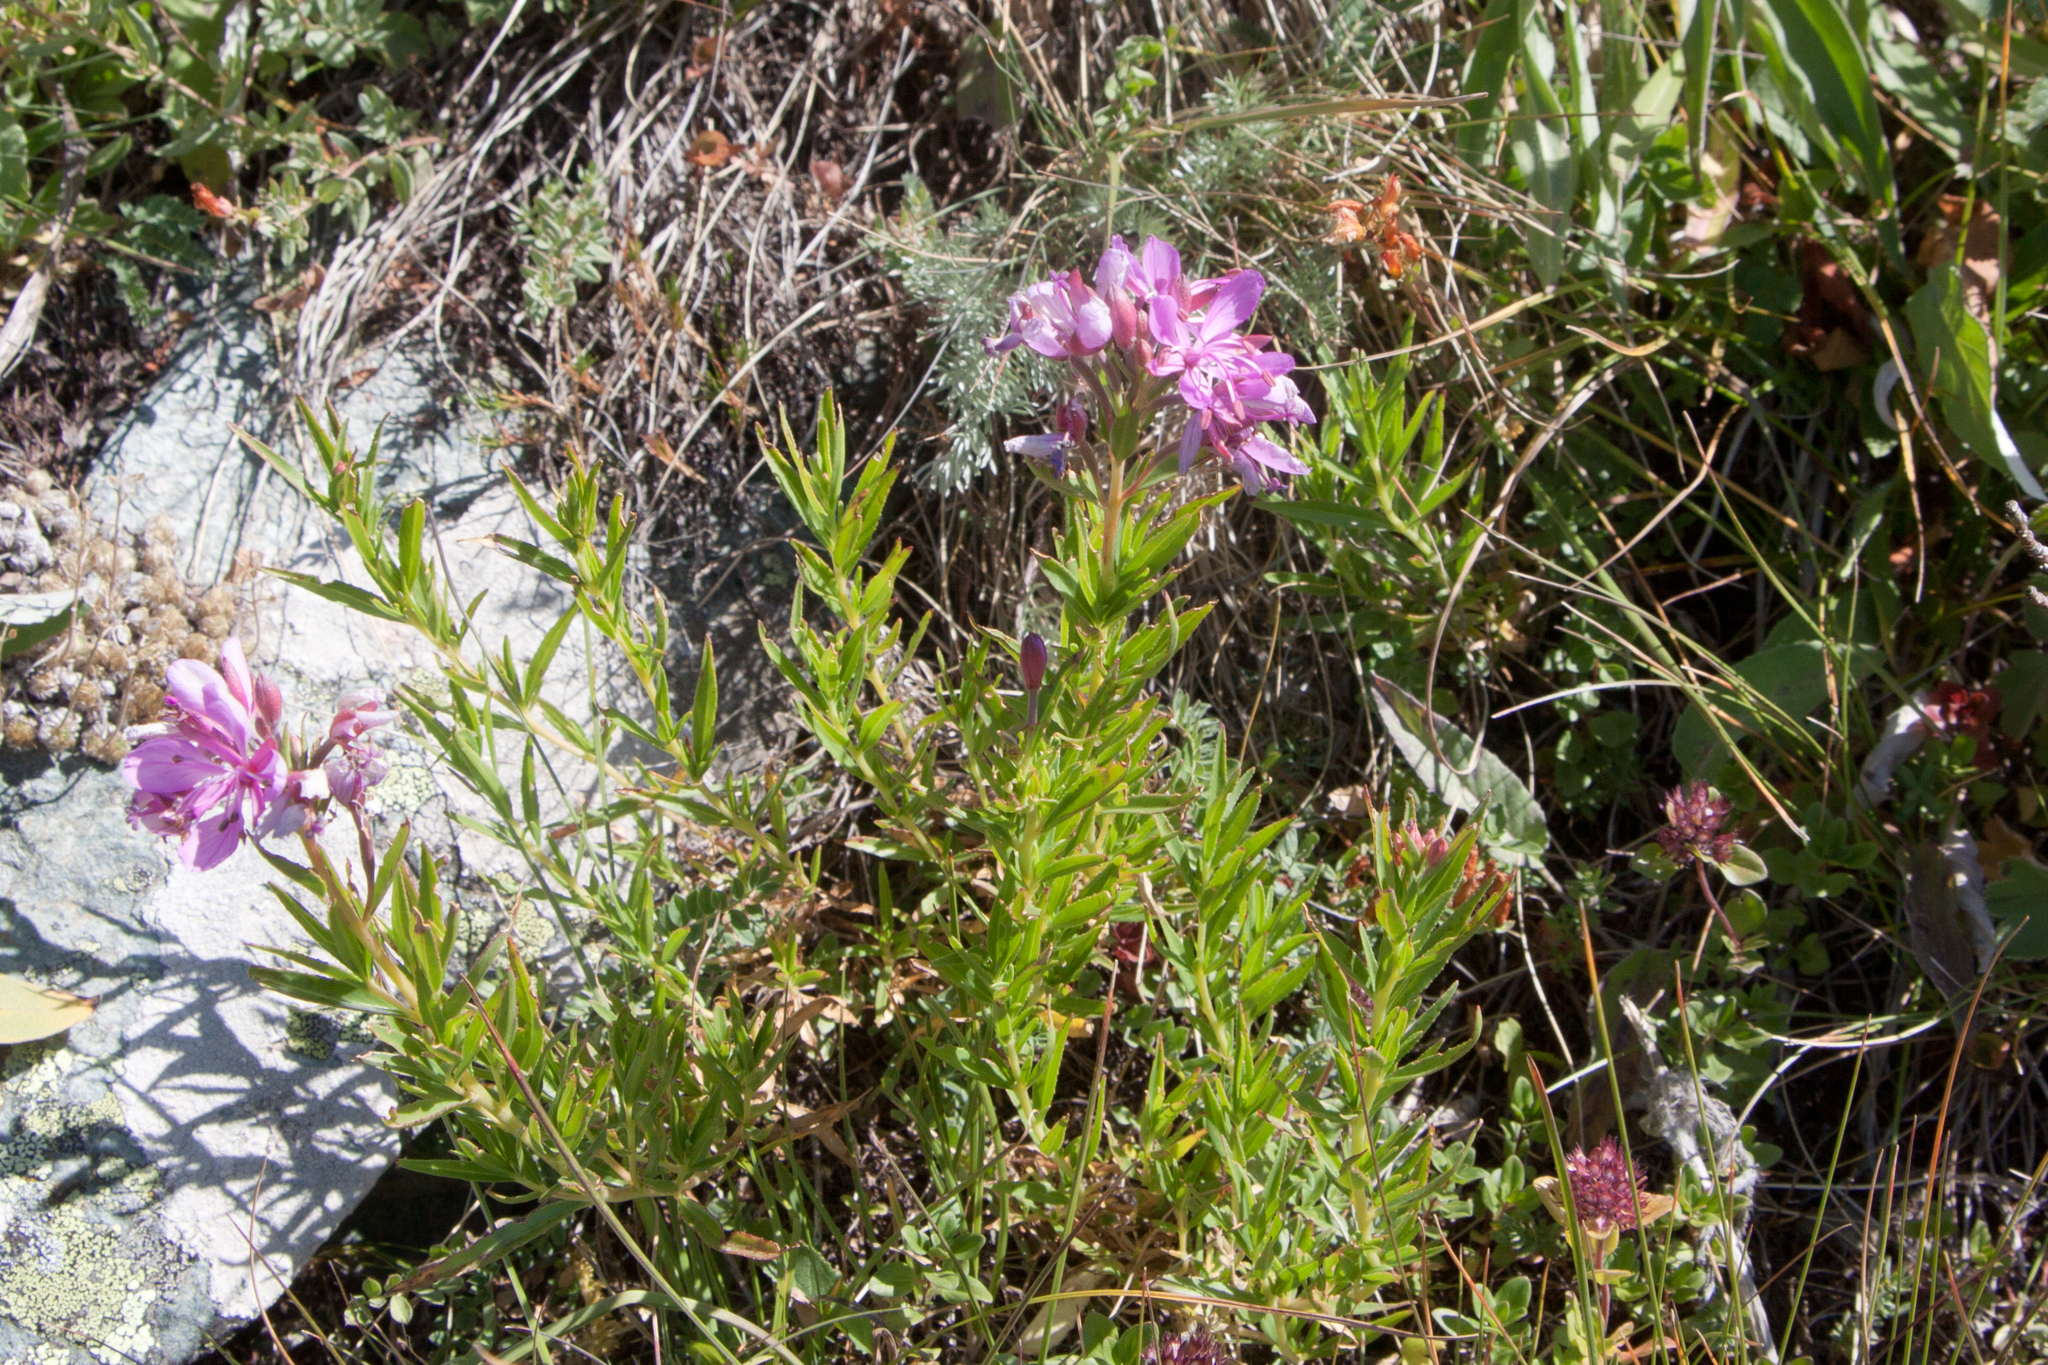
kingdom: Plantae
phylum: Tracheophyta
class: Magnoliopsida
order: Myrtales
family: Onagraceae
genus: Chamaenerion
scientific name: Chamaenerion colchicum
